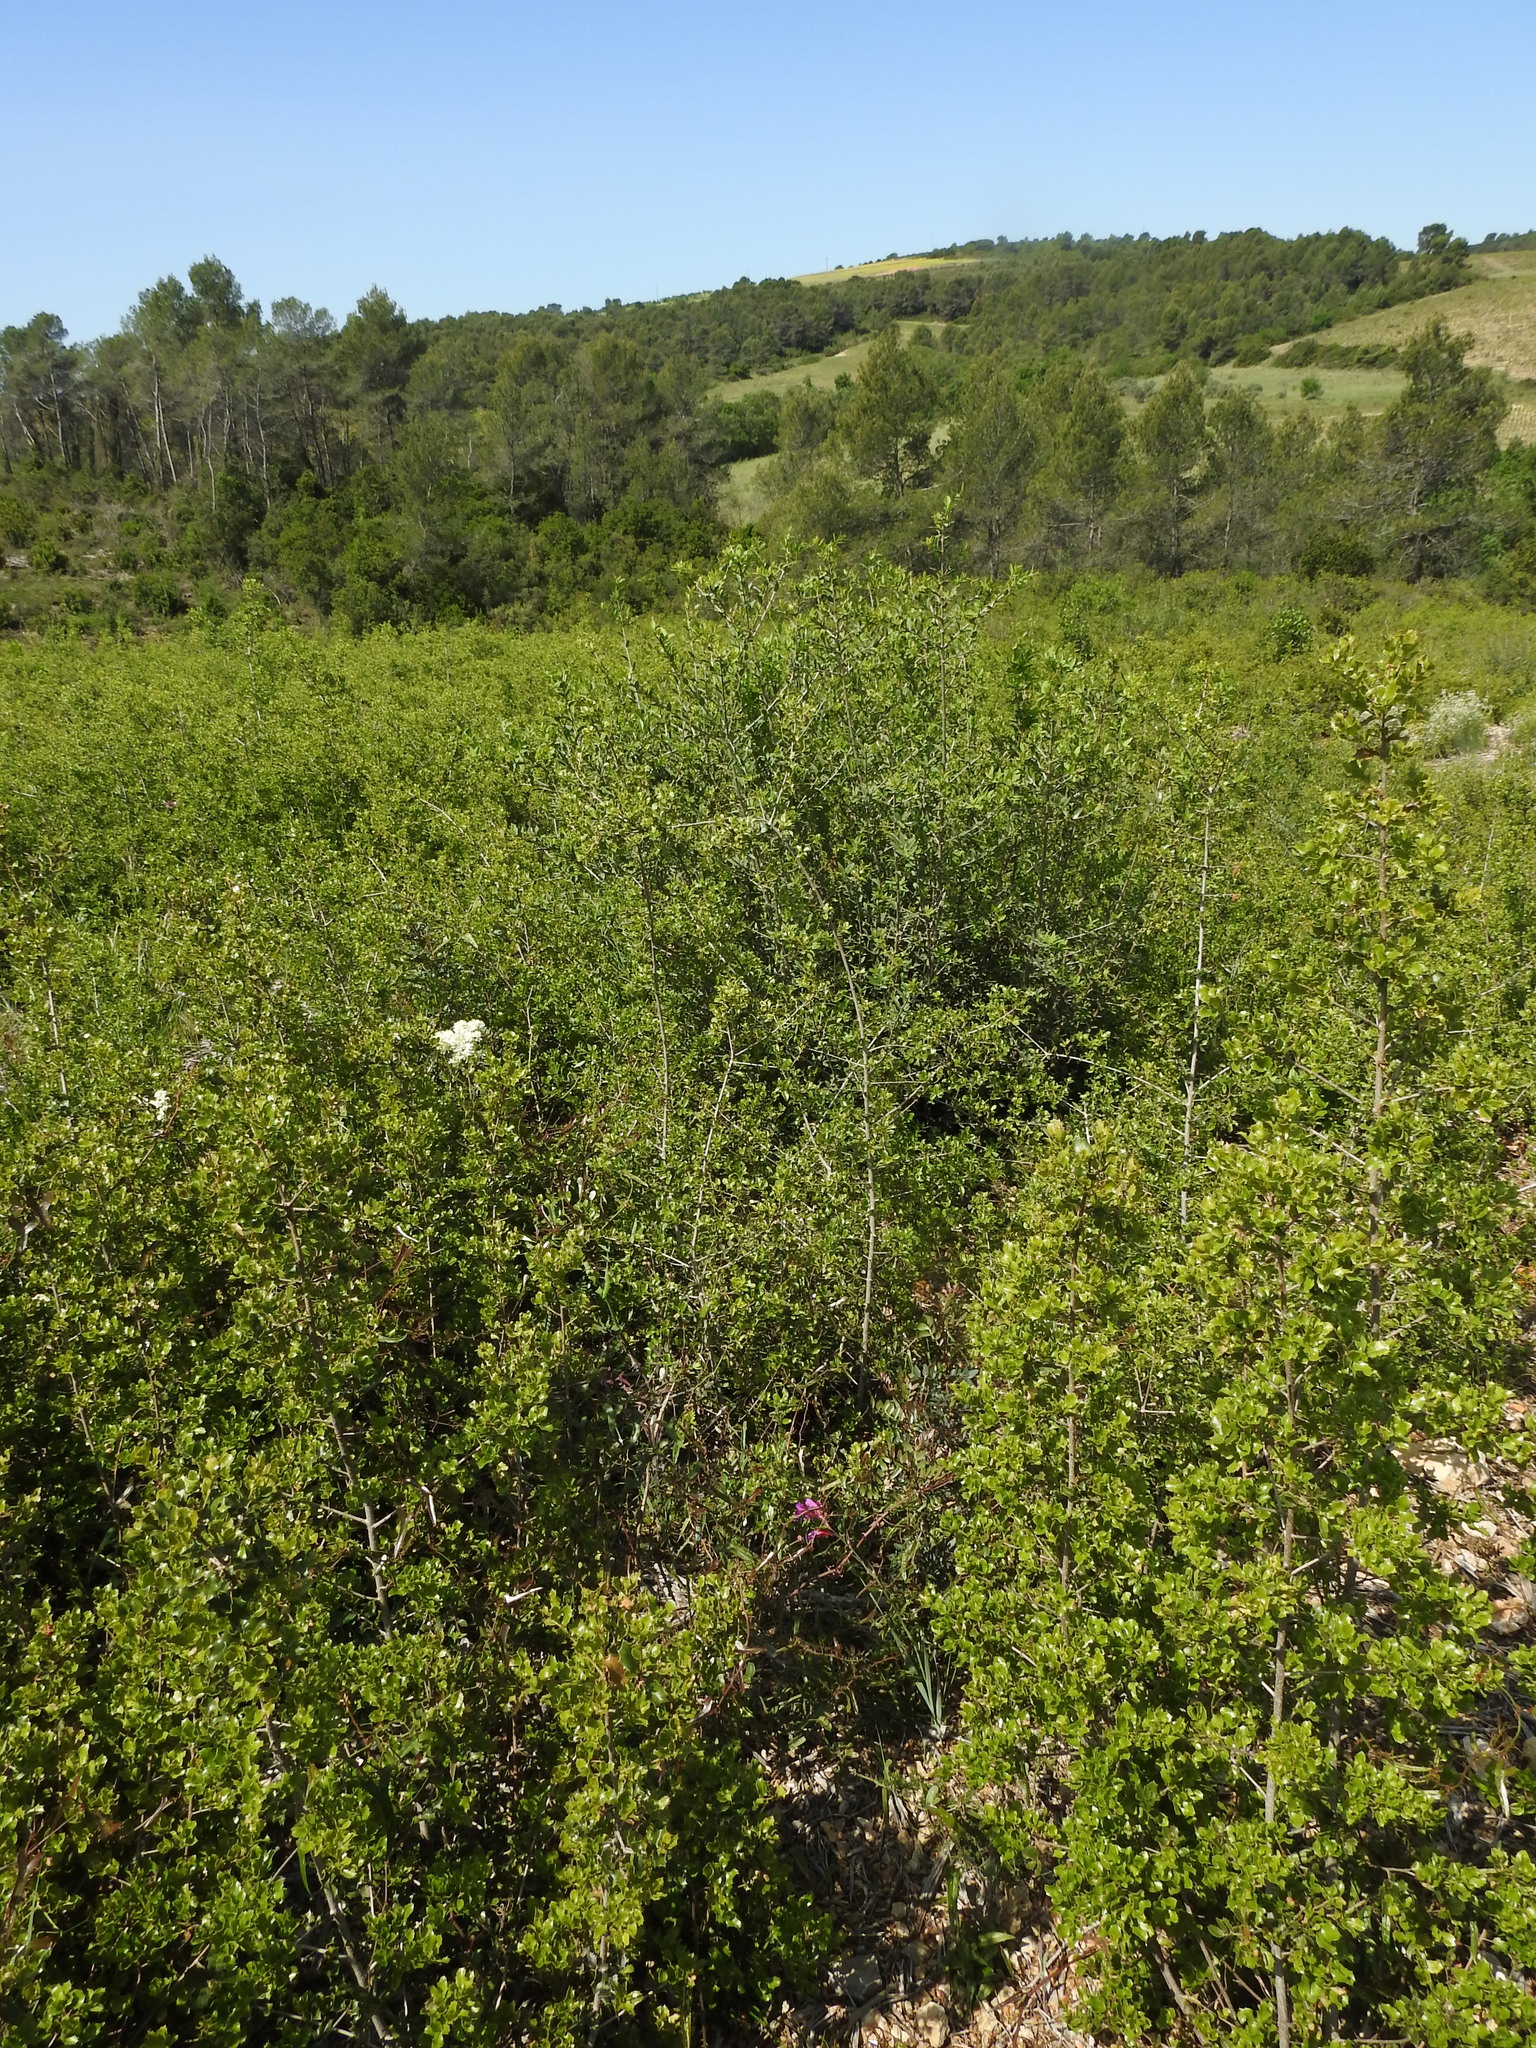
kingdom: Plantae
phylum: Tracheophyta
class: Liliopsida
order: Asparagales
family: Iridaceae
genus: Gladiolus
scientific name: Gladiolus dubius
